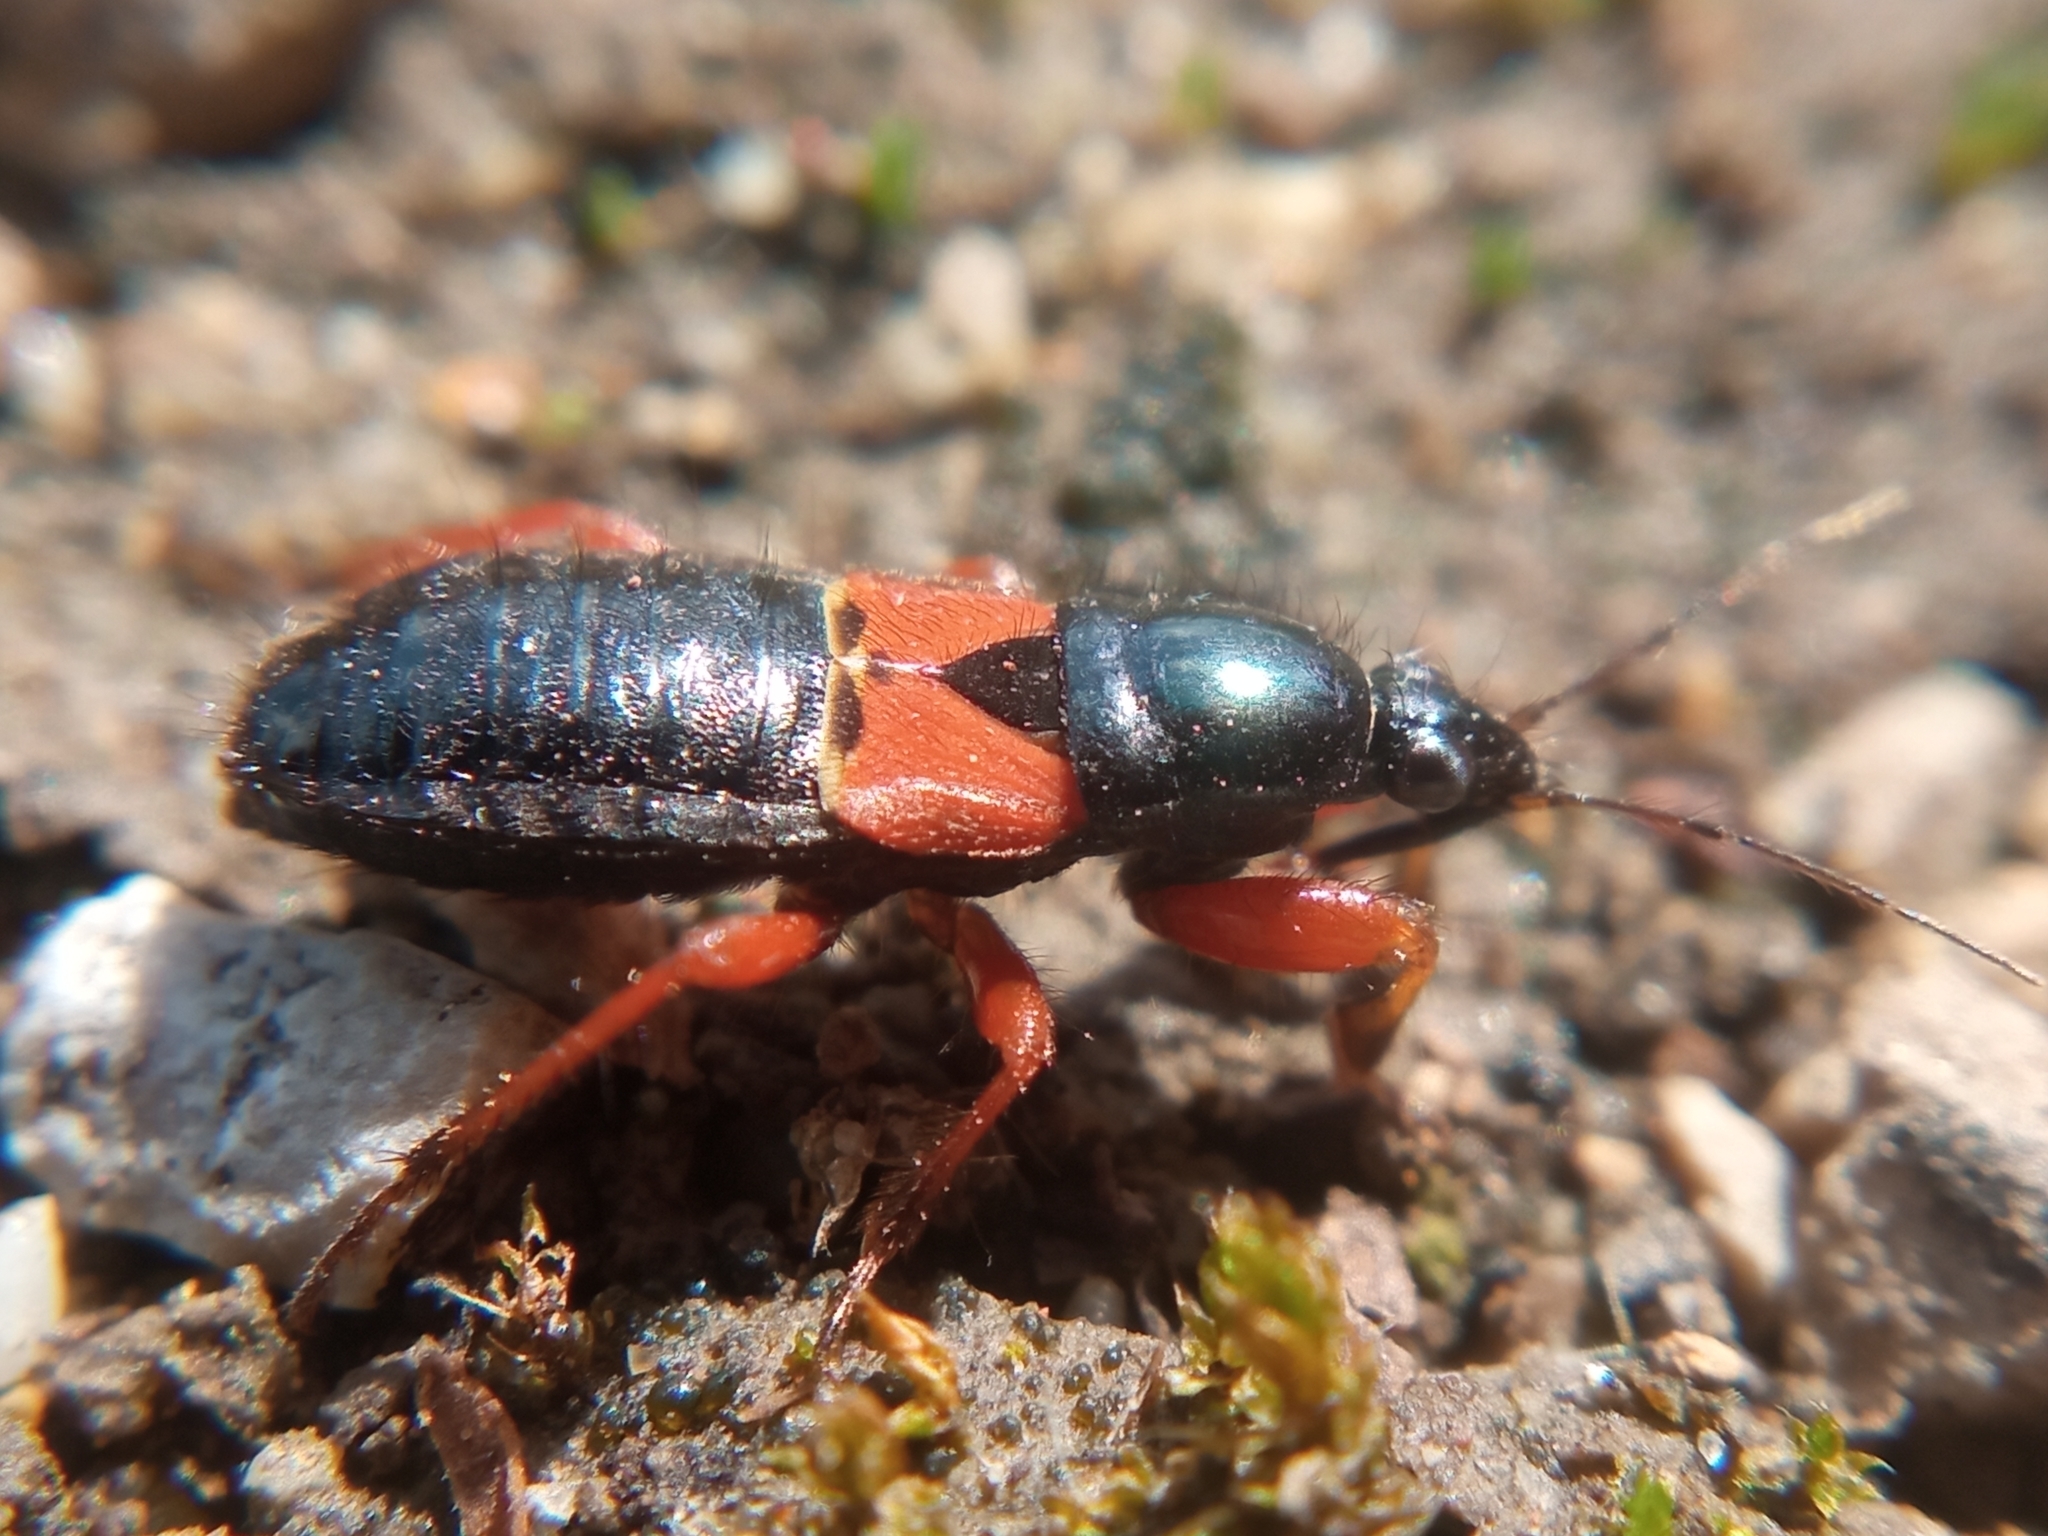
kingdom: Animalia
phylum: Arthropoda
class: Insecta
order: Hemiptera
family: Nabidae
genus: Prostemma
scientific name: Prostemma guttula
